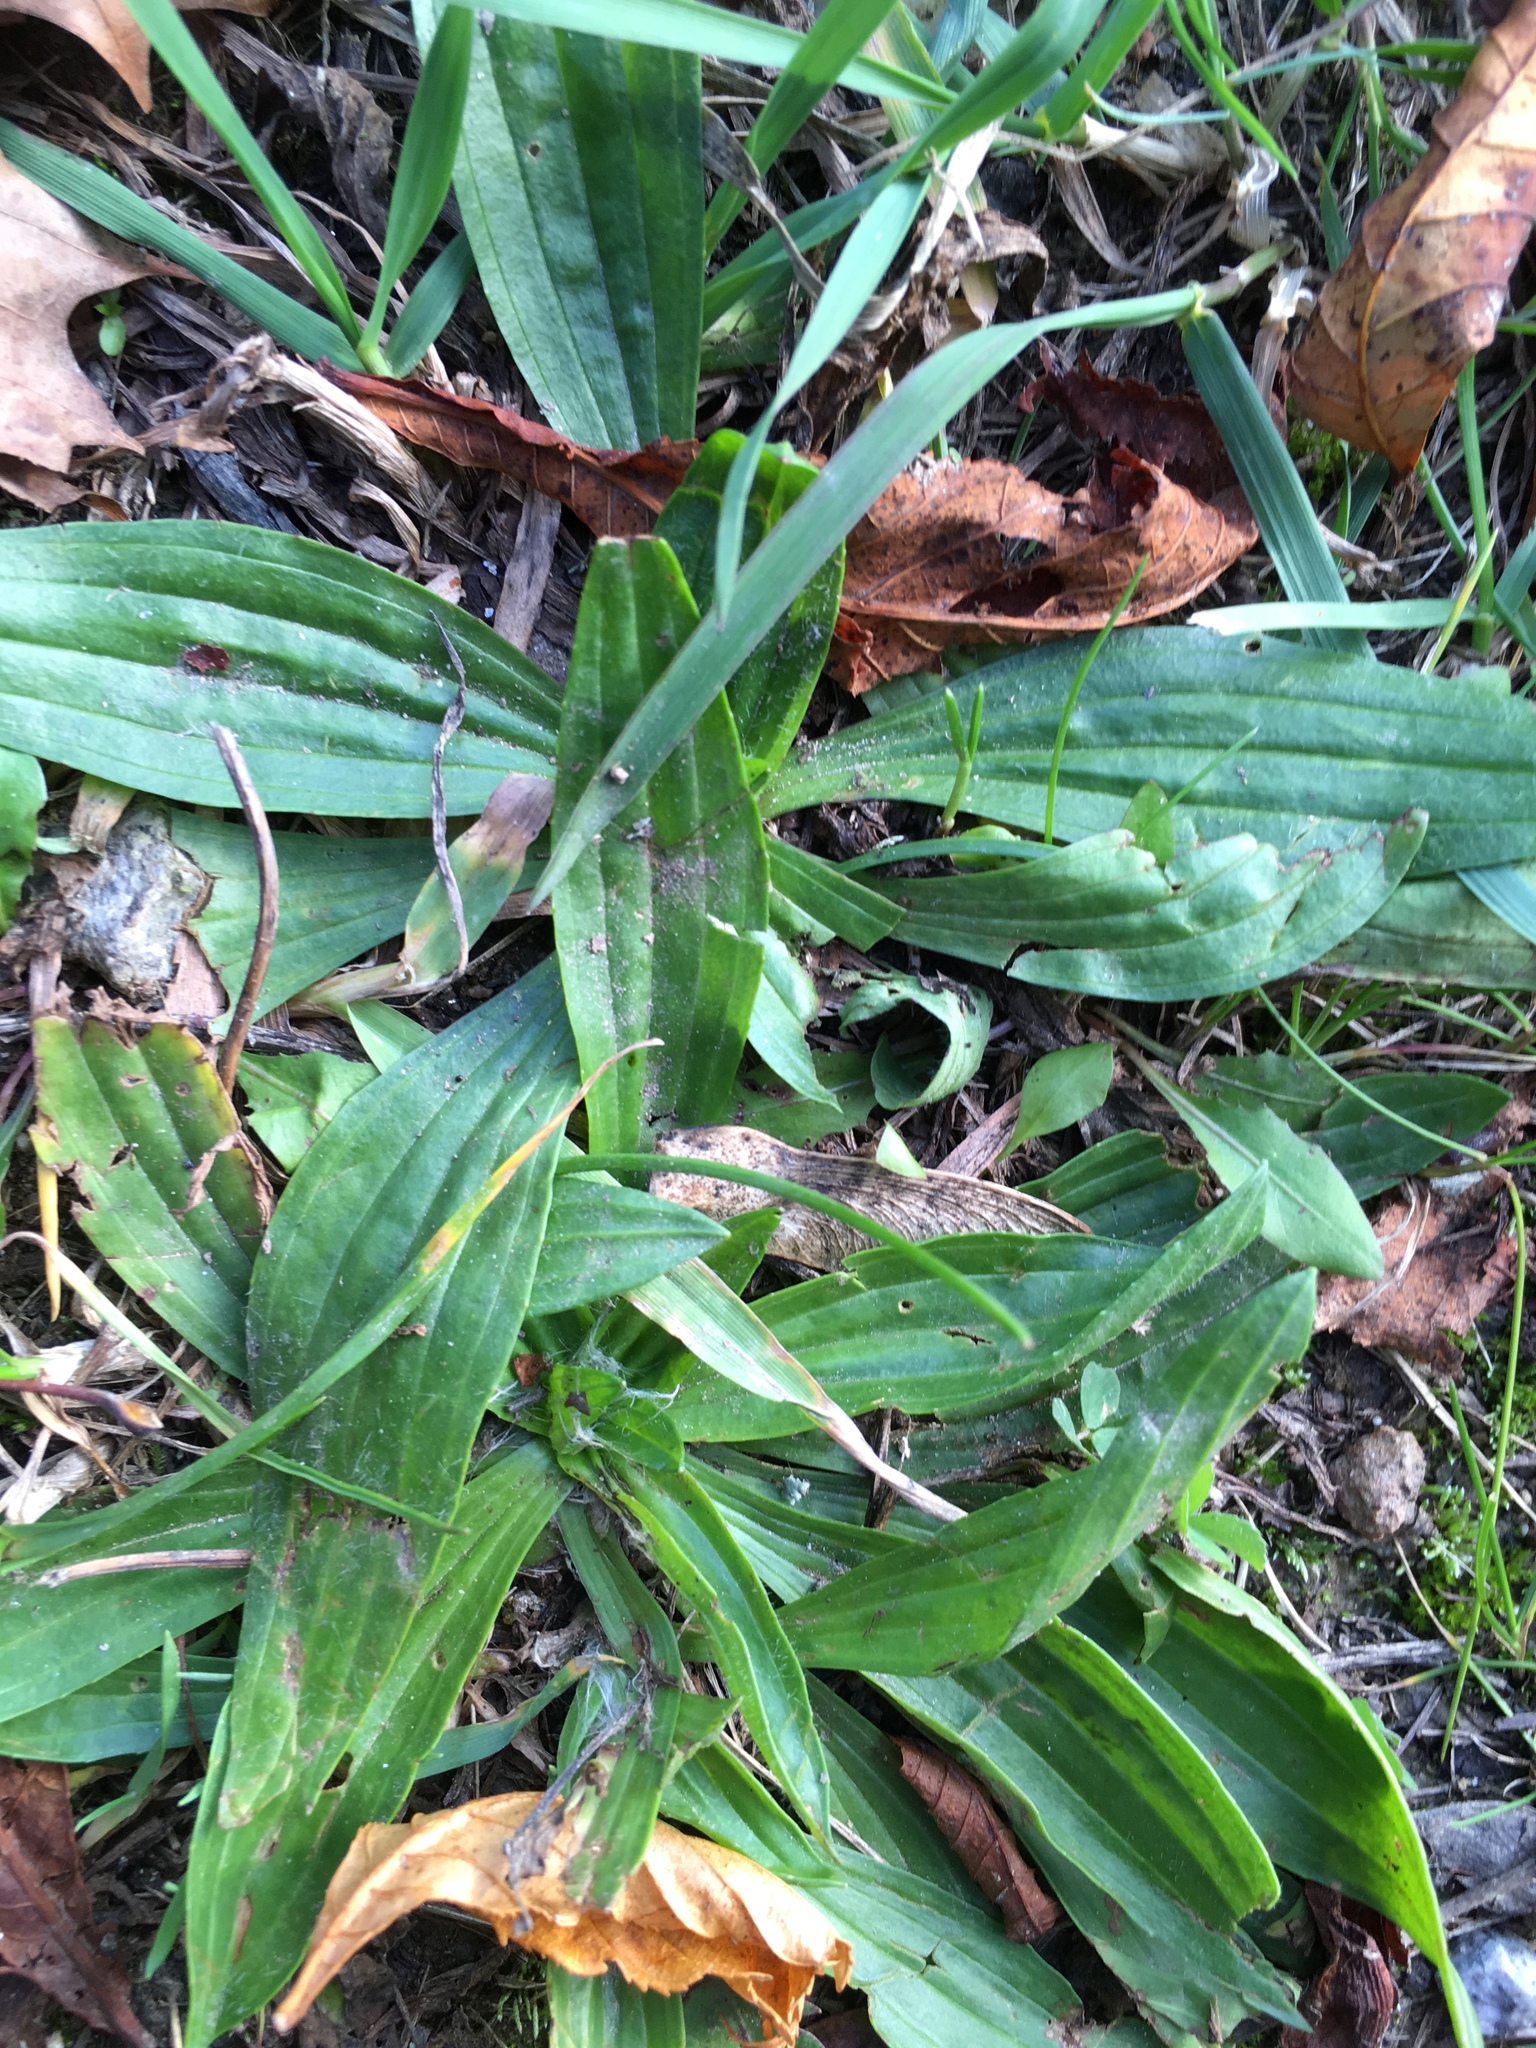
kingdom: Plantae
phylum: Tracheophyta
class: Magnoliopsida
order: Lamiales
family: Plantaginaceae
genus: Plantago
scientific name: Plantago lanceolata
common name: Ribwort plantain
